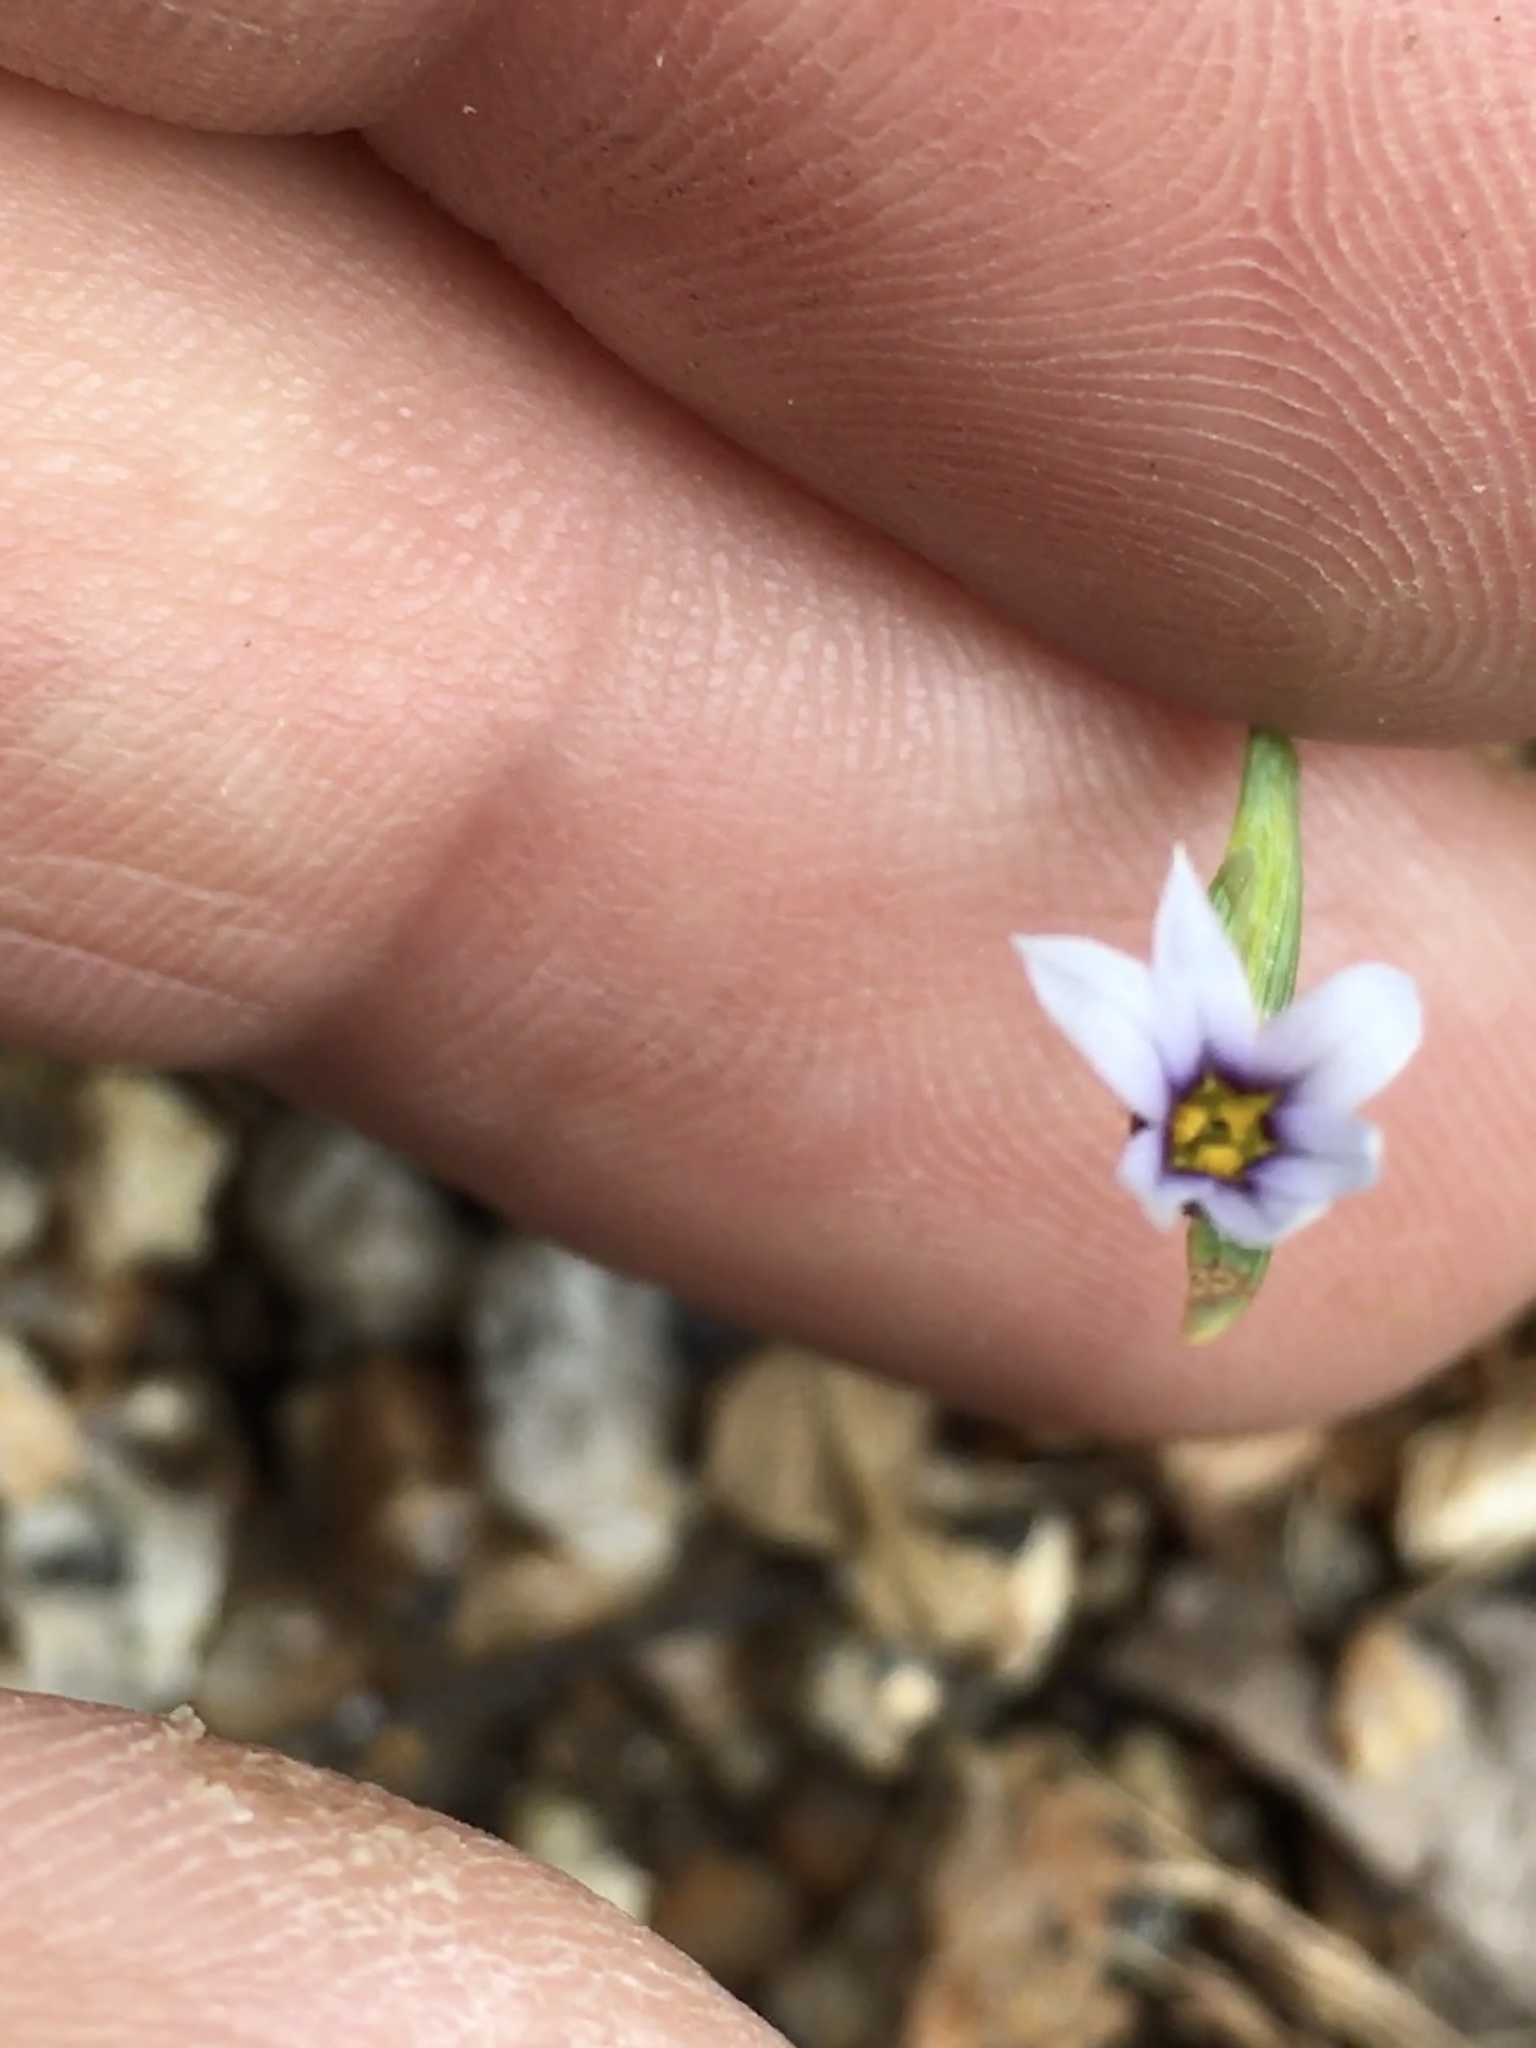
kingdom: Plantae
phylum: Tracheophyta
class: Liliopsida
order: Asparagales
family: Iridaceae
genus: Sisyrinchium
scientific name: Sisyrinchium micranthum
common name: Bermuda pigroot
